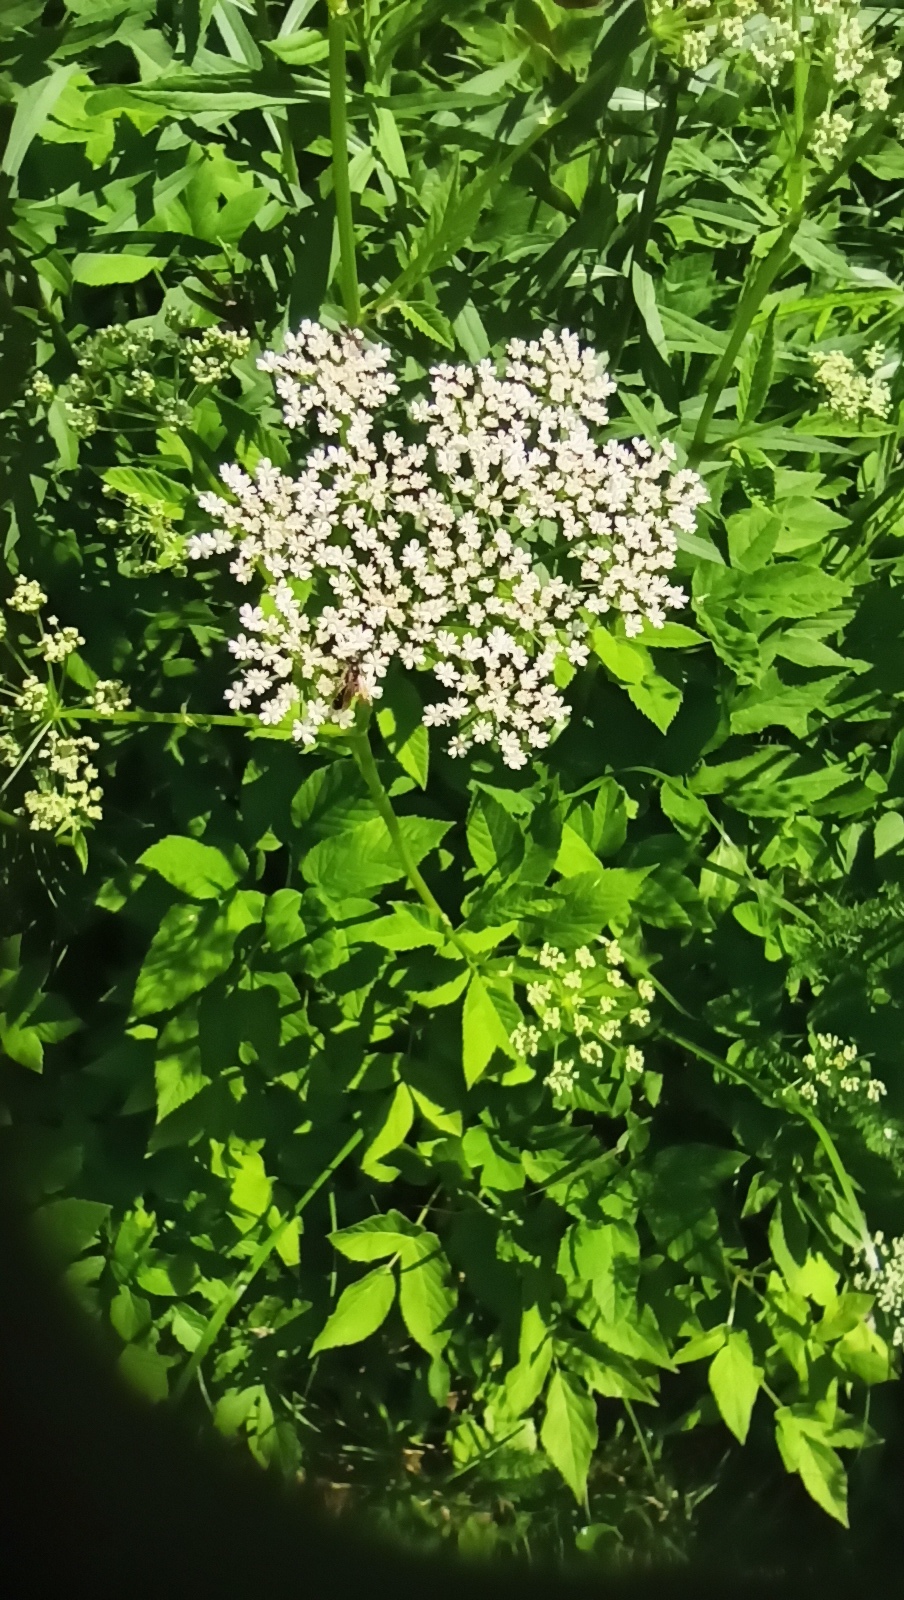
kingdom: Plantae
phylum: Tracheophyta
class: Magnoliopsida
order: Apiales
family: Apiaceae
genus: Aegopodium
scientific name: Aegopodium podagraria
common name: Ground-elder
